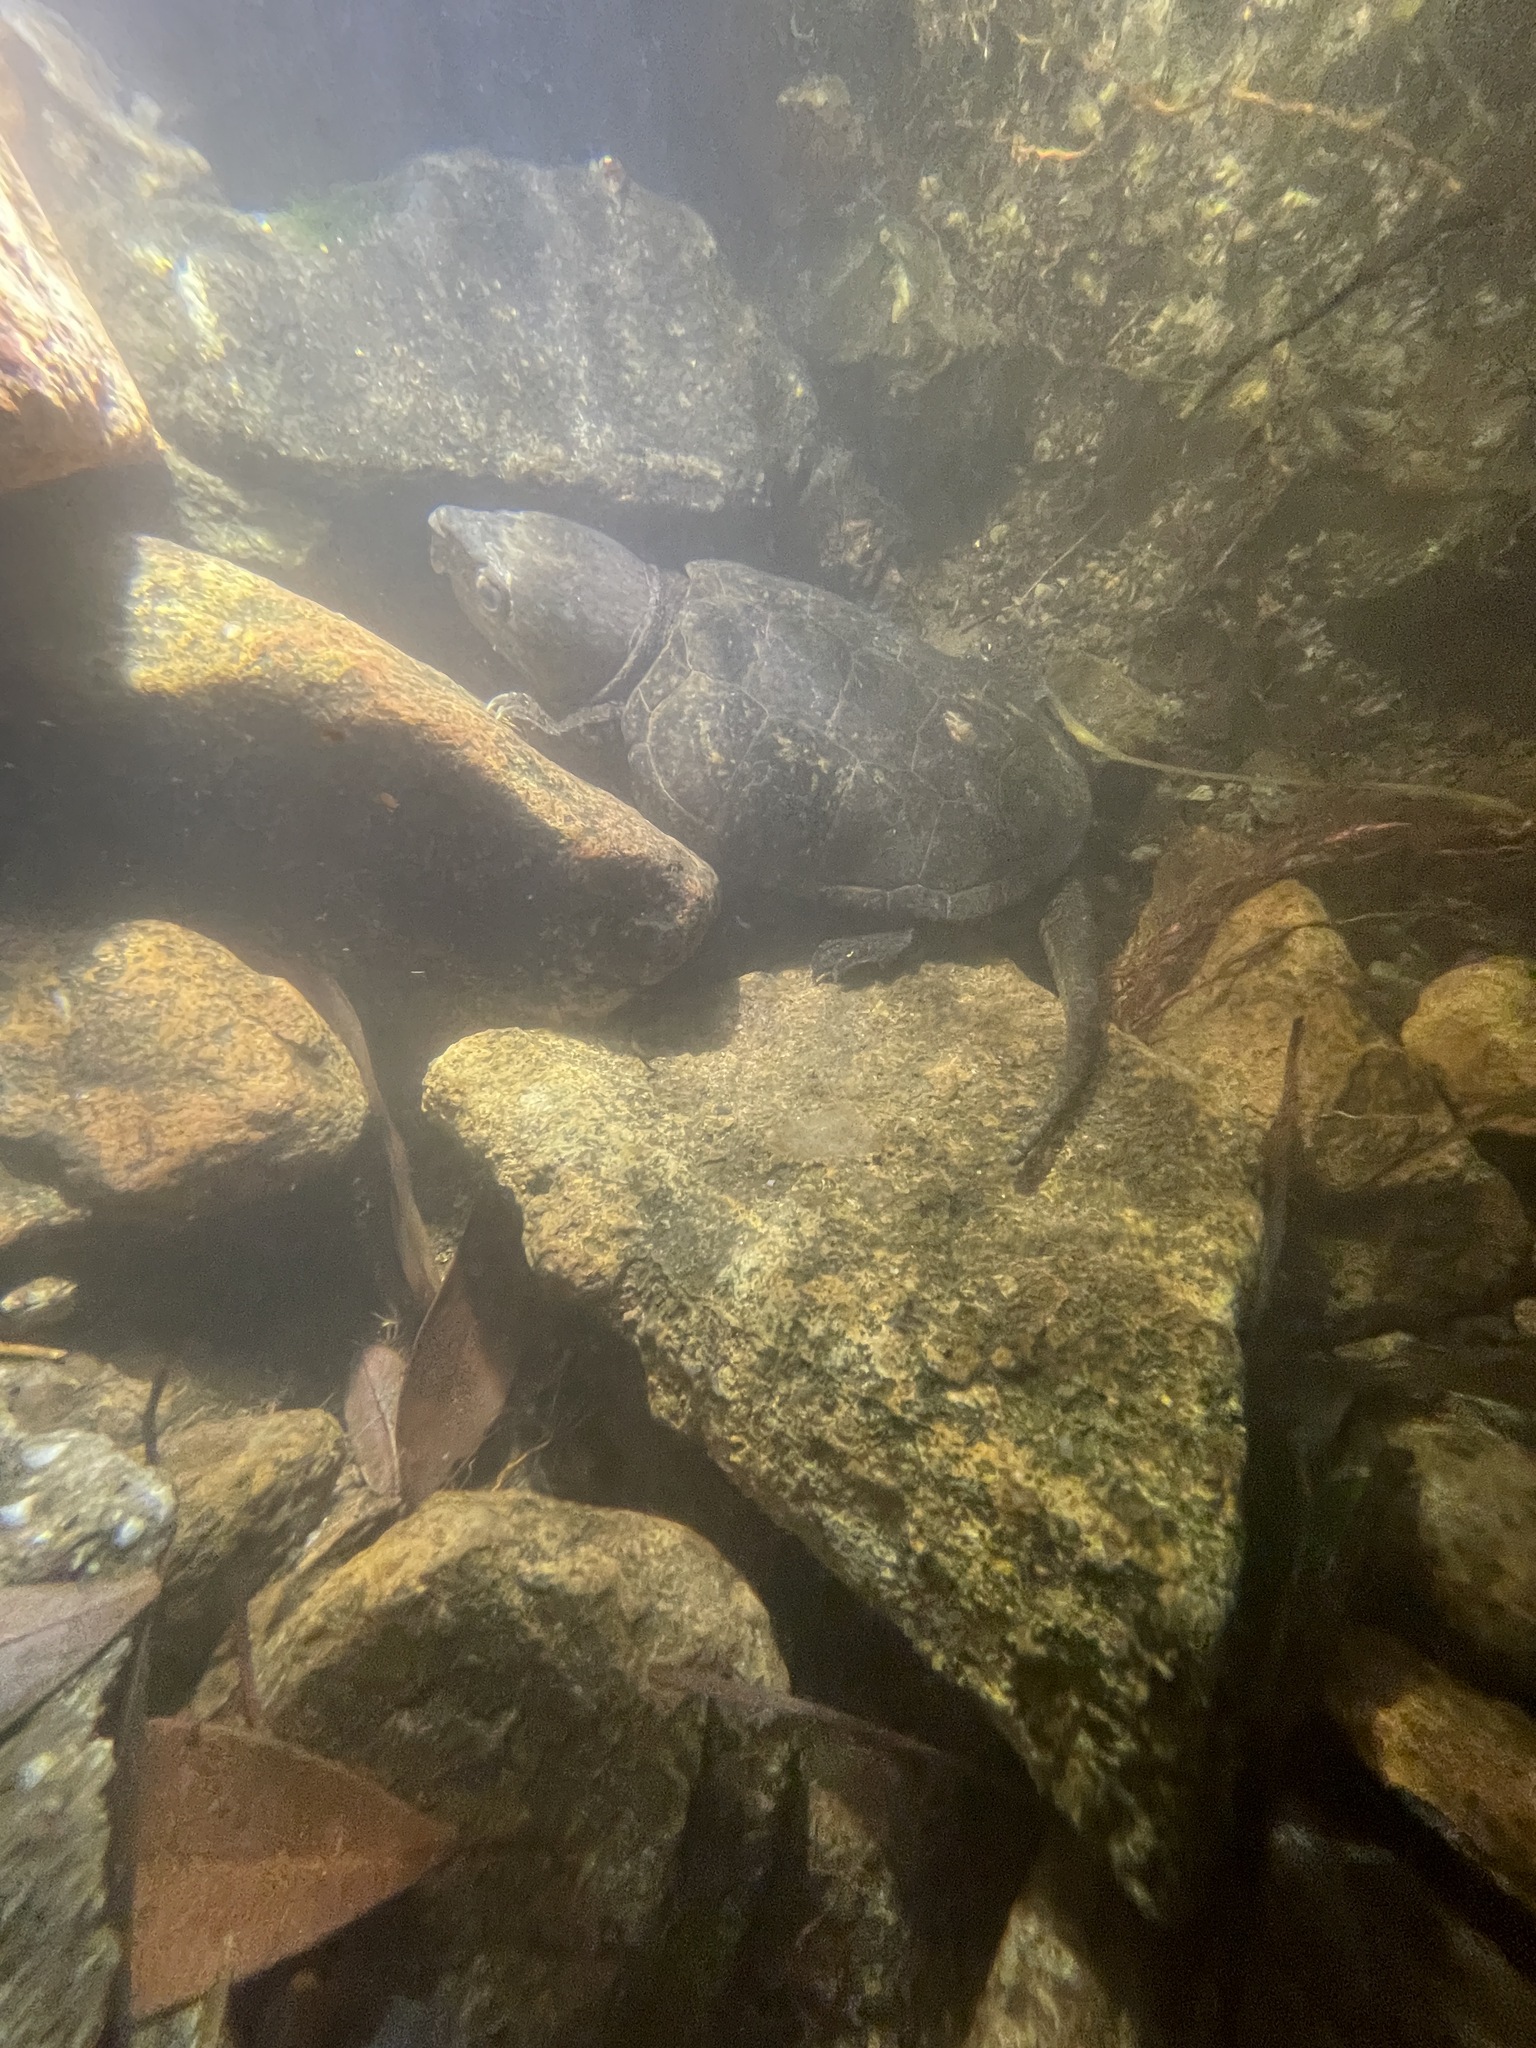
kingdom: Animalia
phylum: Chordata
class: Testudines
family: Platysternidae
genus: Platysternon
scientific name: Platysternon megacephalum
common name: Big-headed turtle
